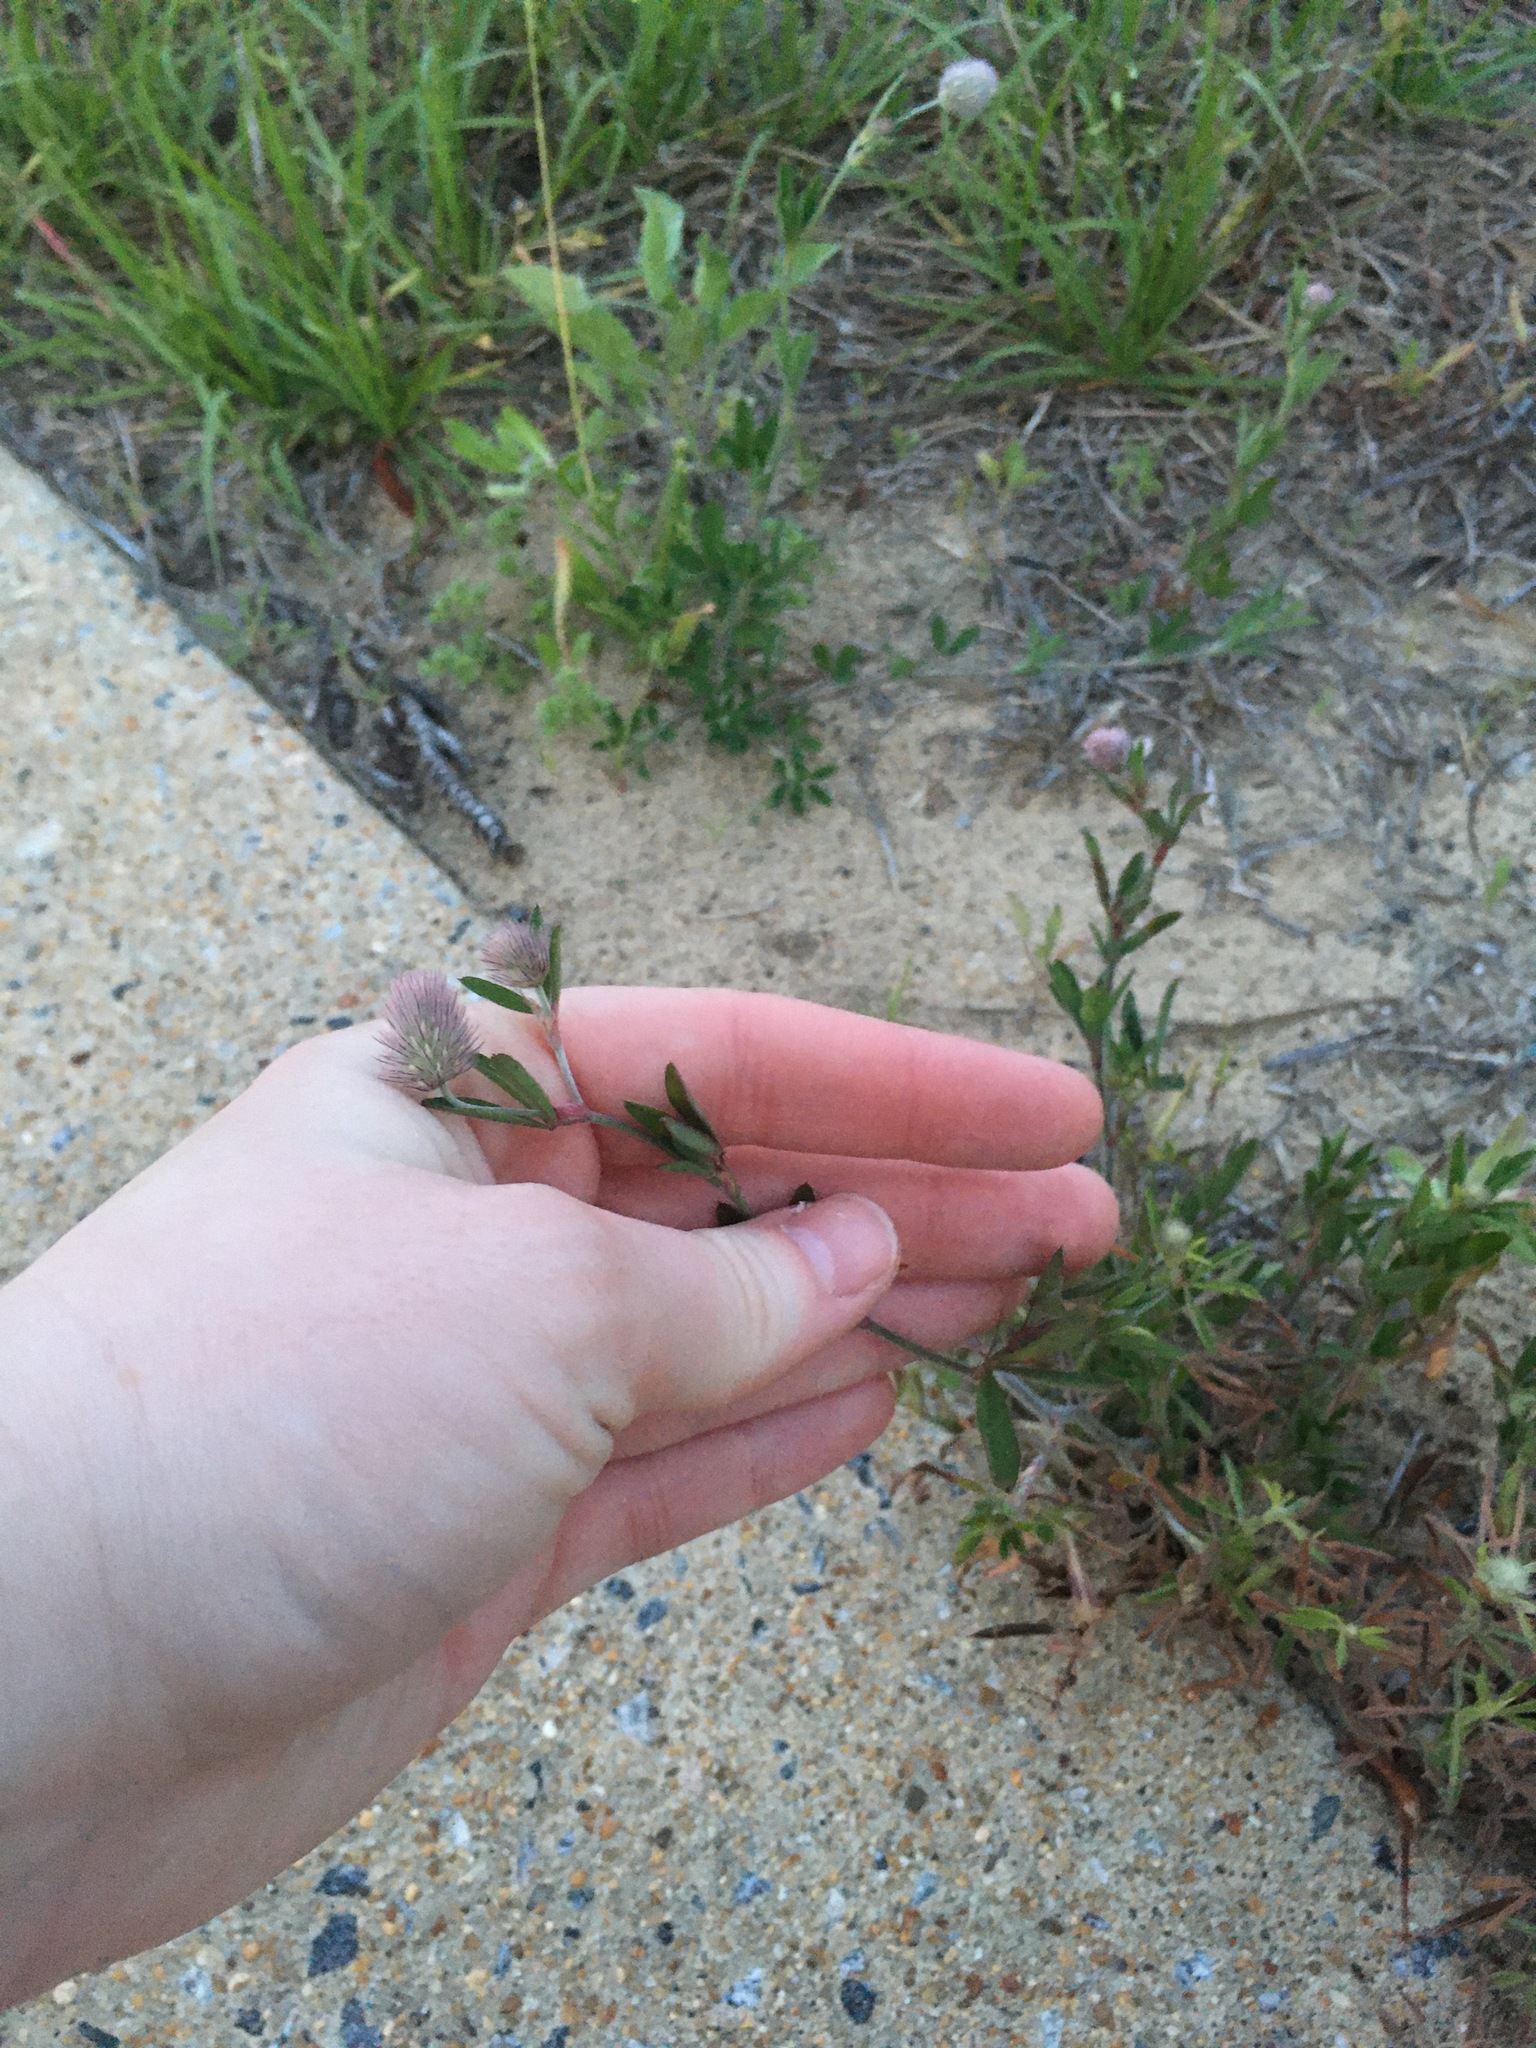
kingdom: Plantae
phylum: Tracheophyta
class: Magnoliopsida
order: Fabales
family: Fabaceae
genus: Trifolium
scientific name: Trifolium arvense
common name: Hare's-foot clover
